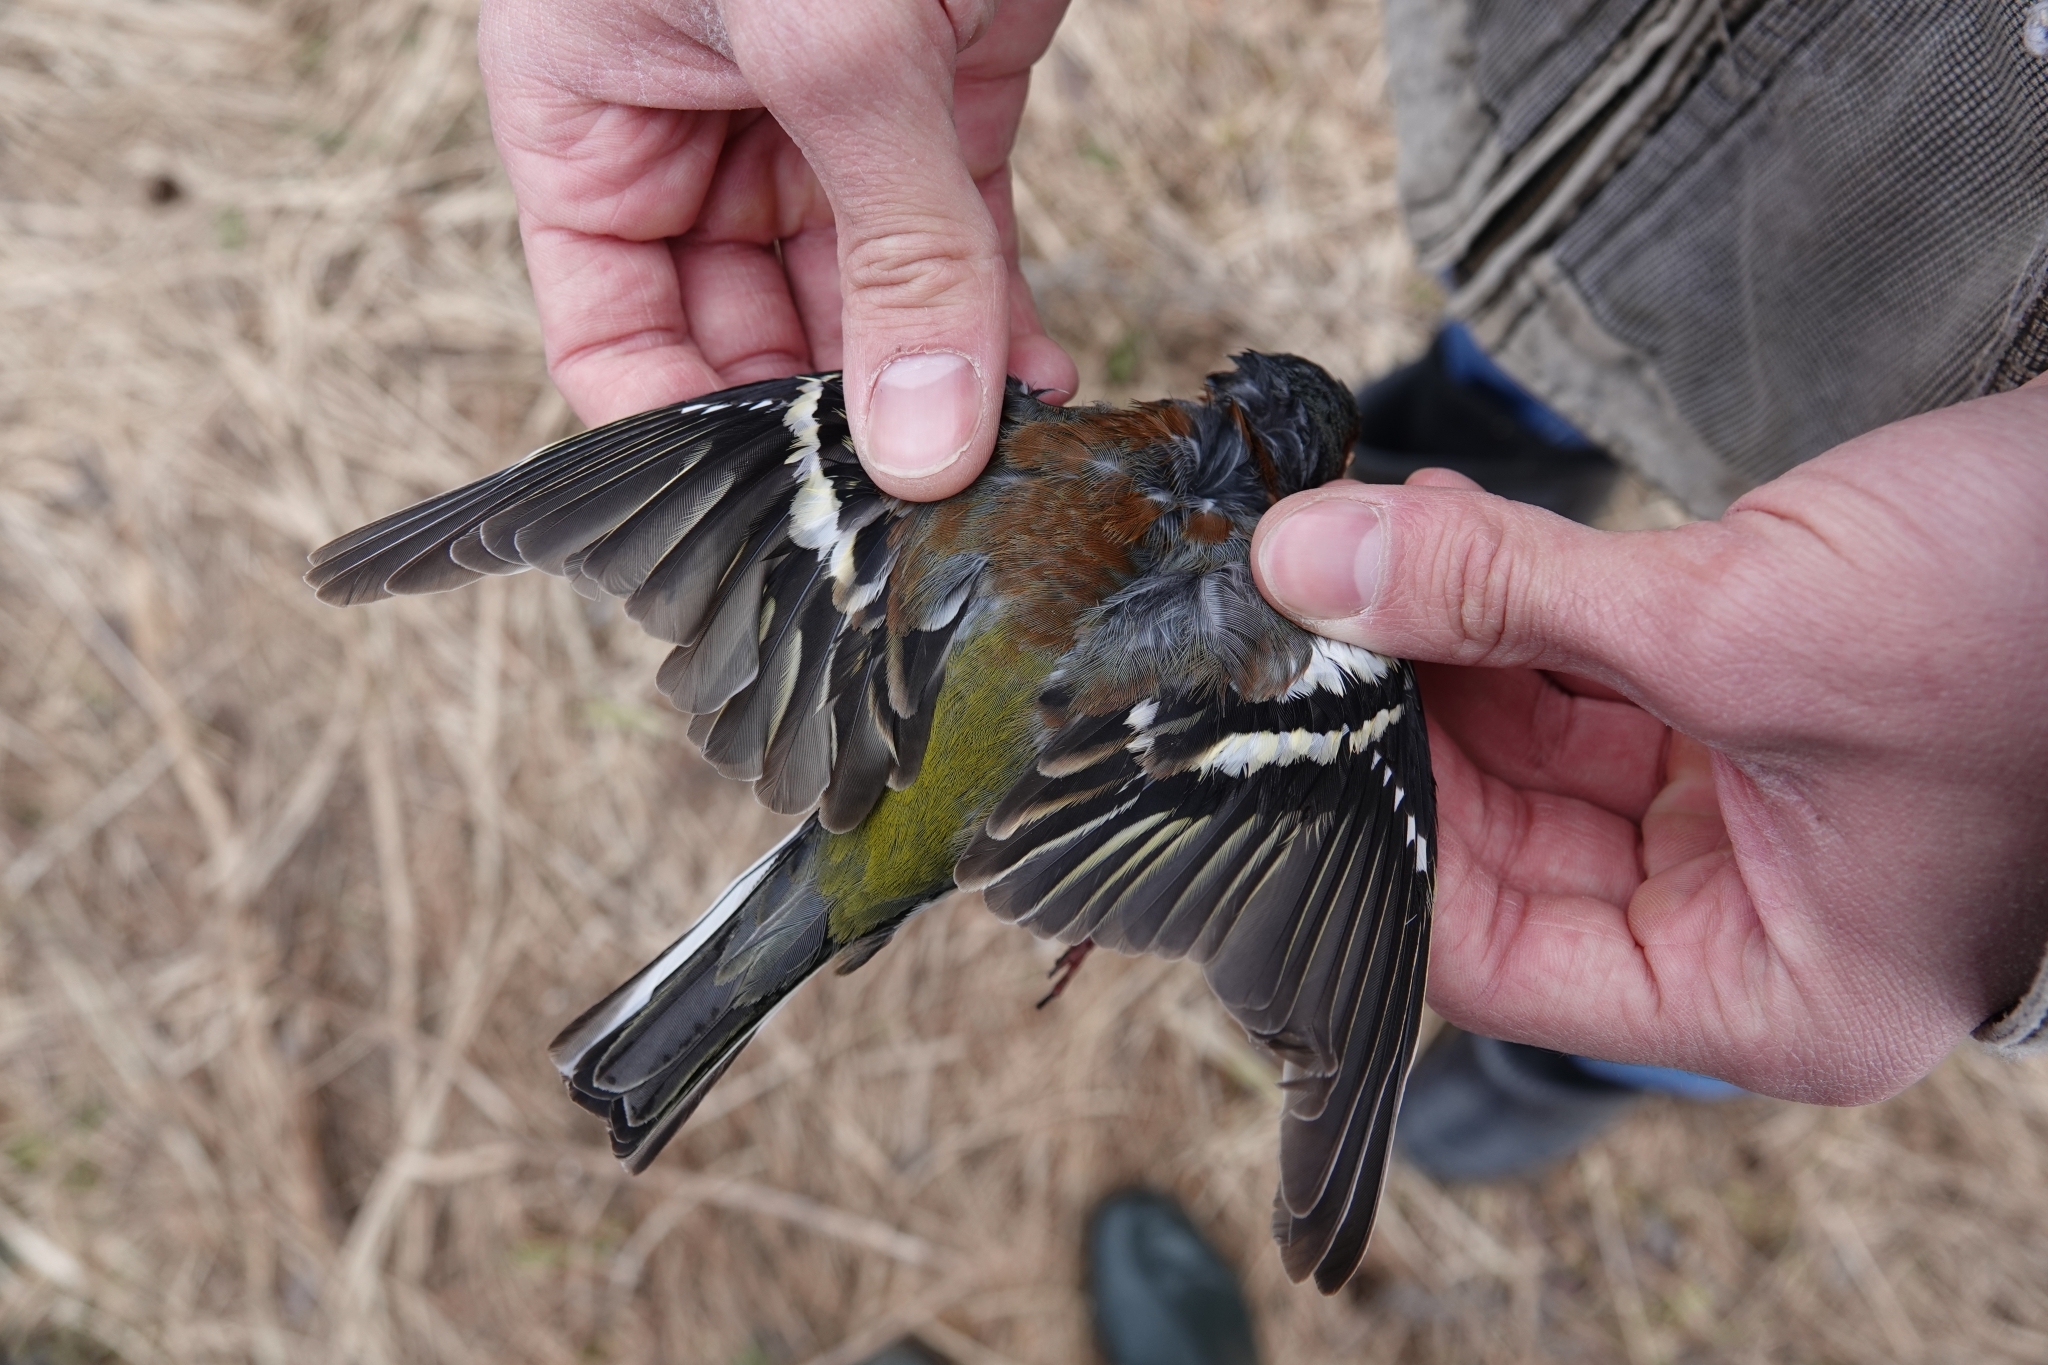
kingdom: Animalia
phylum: Chordata
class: Aves
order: Passeriformes
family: Fringillidae
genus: Fringilla
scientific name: Fringilla coelebs
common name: Common chaffinch
